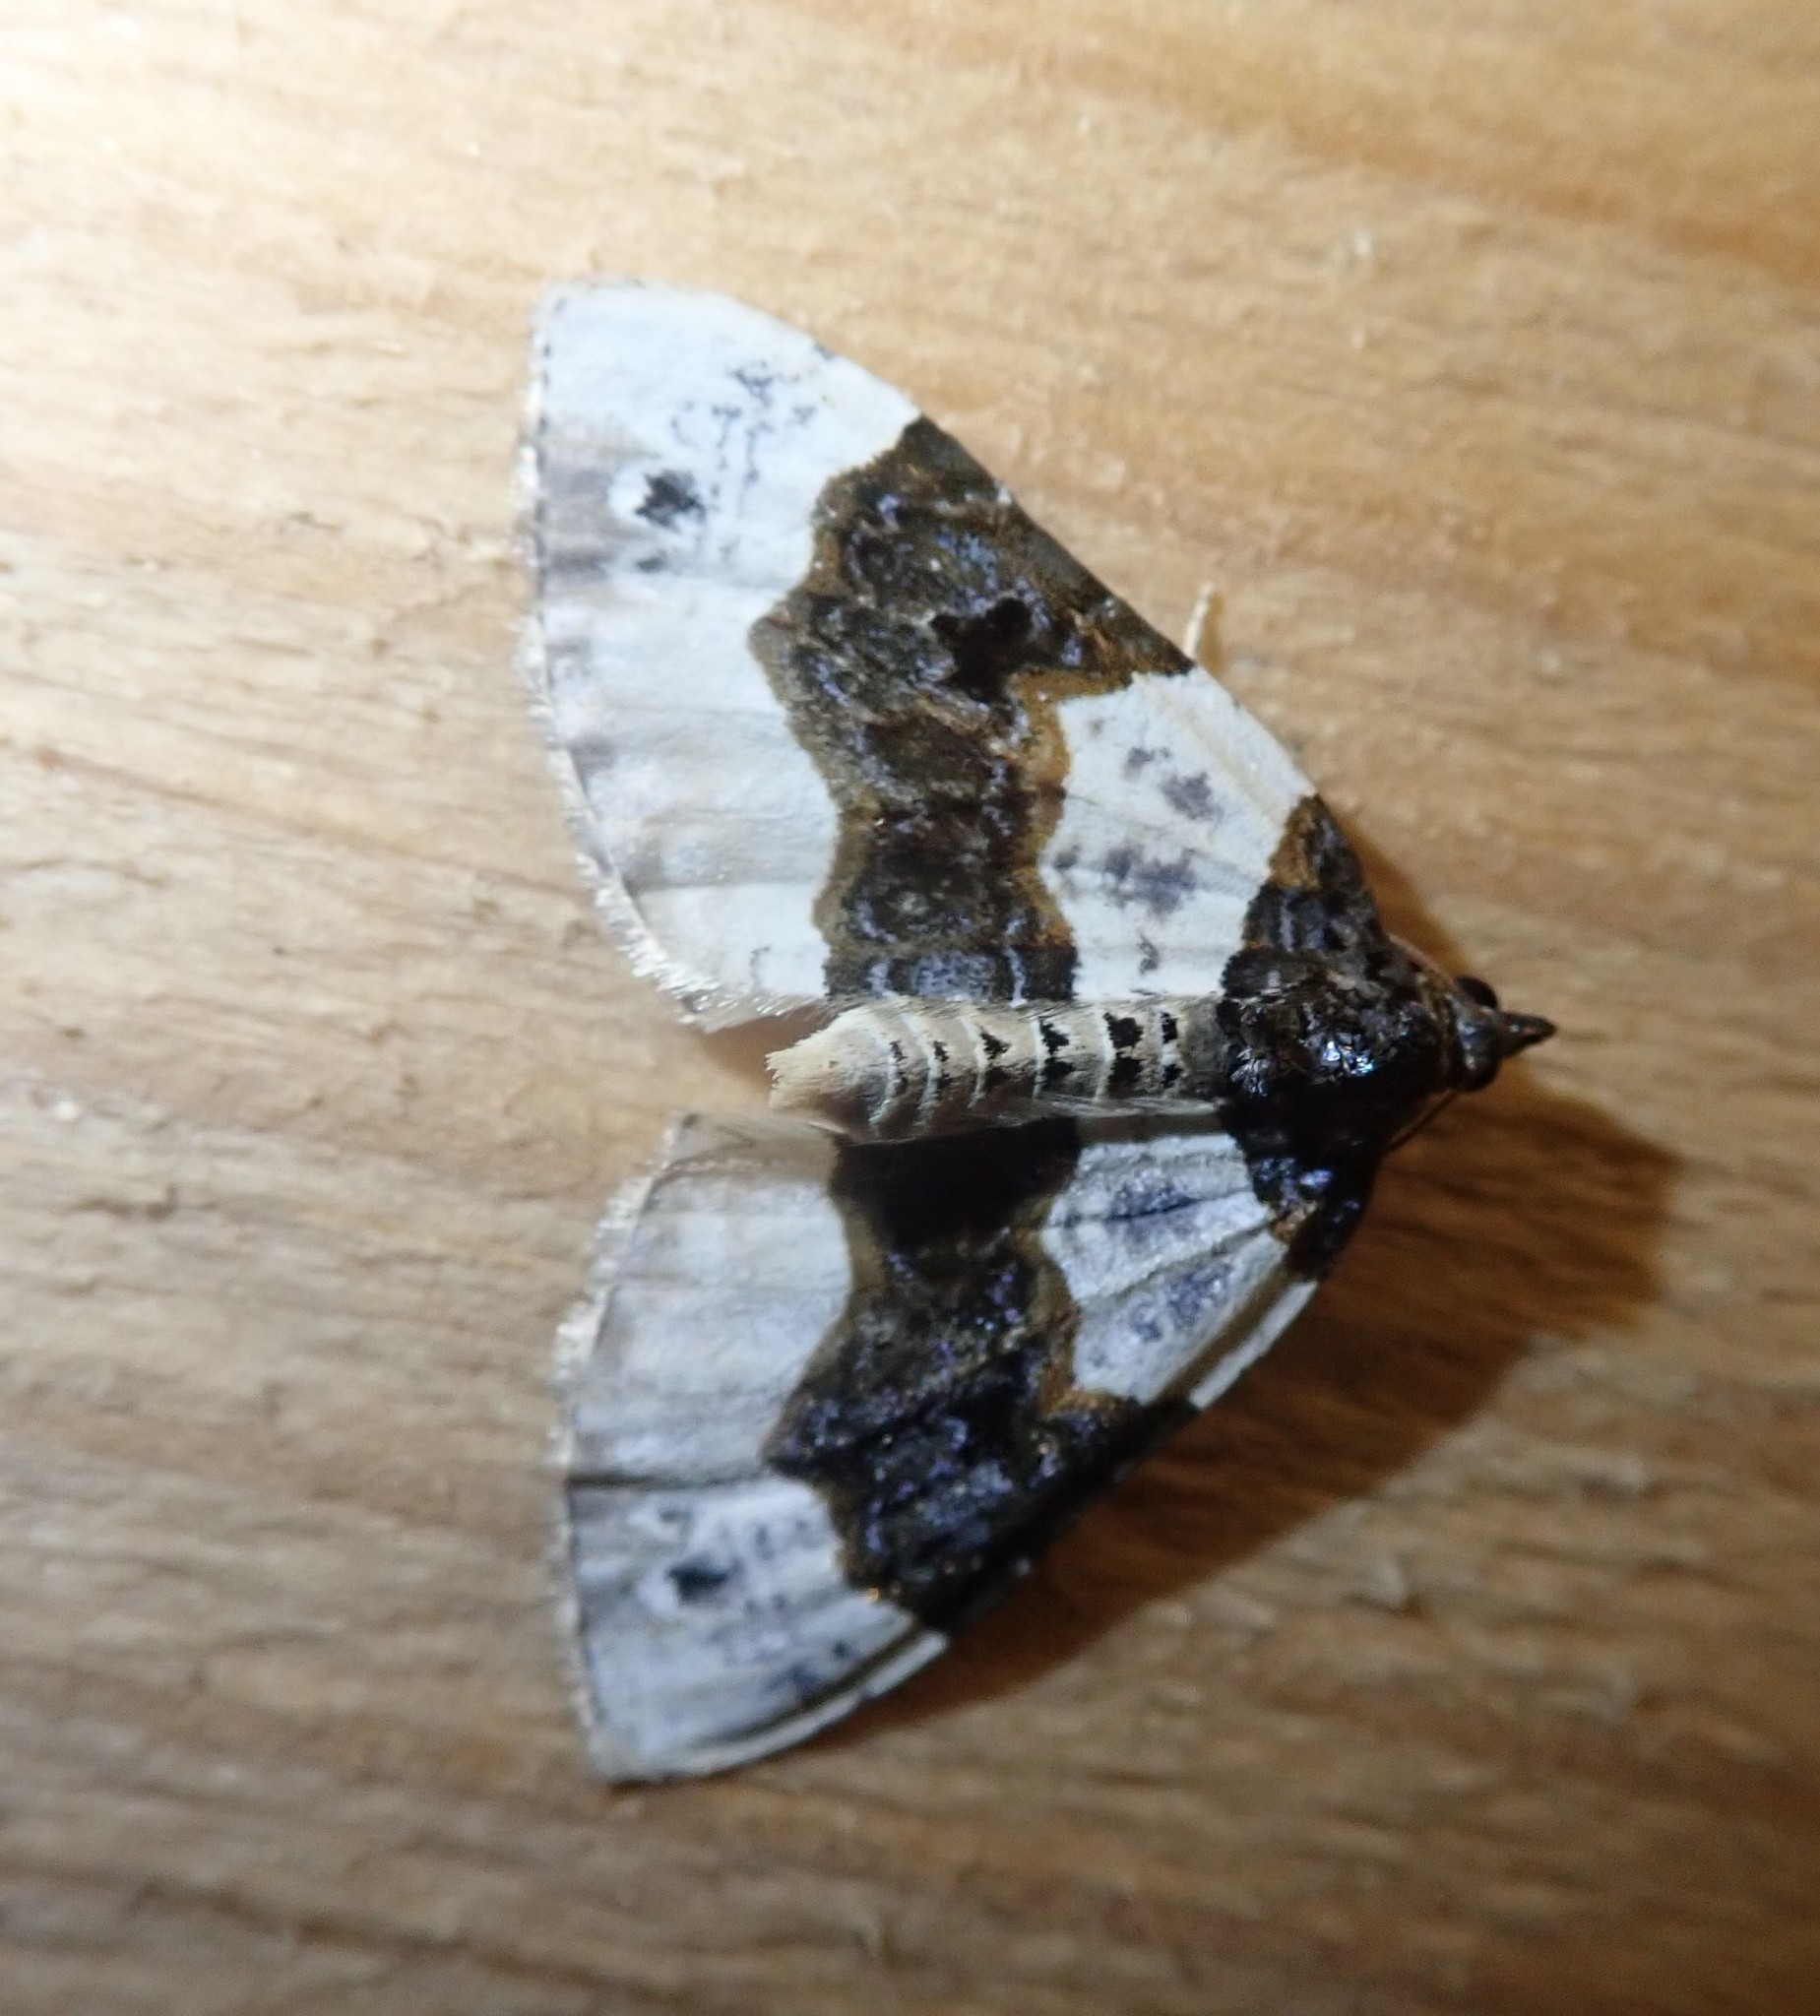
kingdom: Animalia
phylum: Arthropoda
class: Insecta
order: Lepidoptera
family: Geometridae
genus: Cosmorhoe
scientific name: Cosmorhoe ocellata
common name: Purple bar
